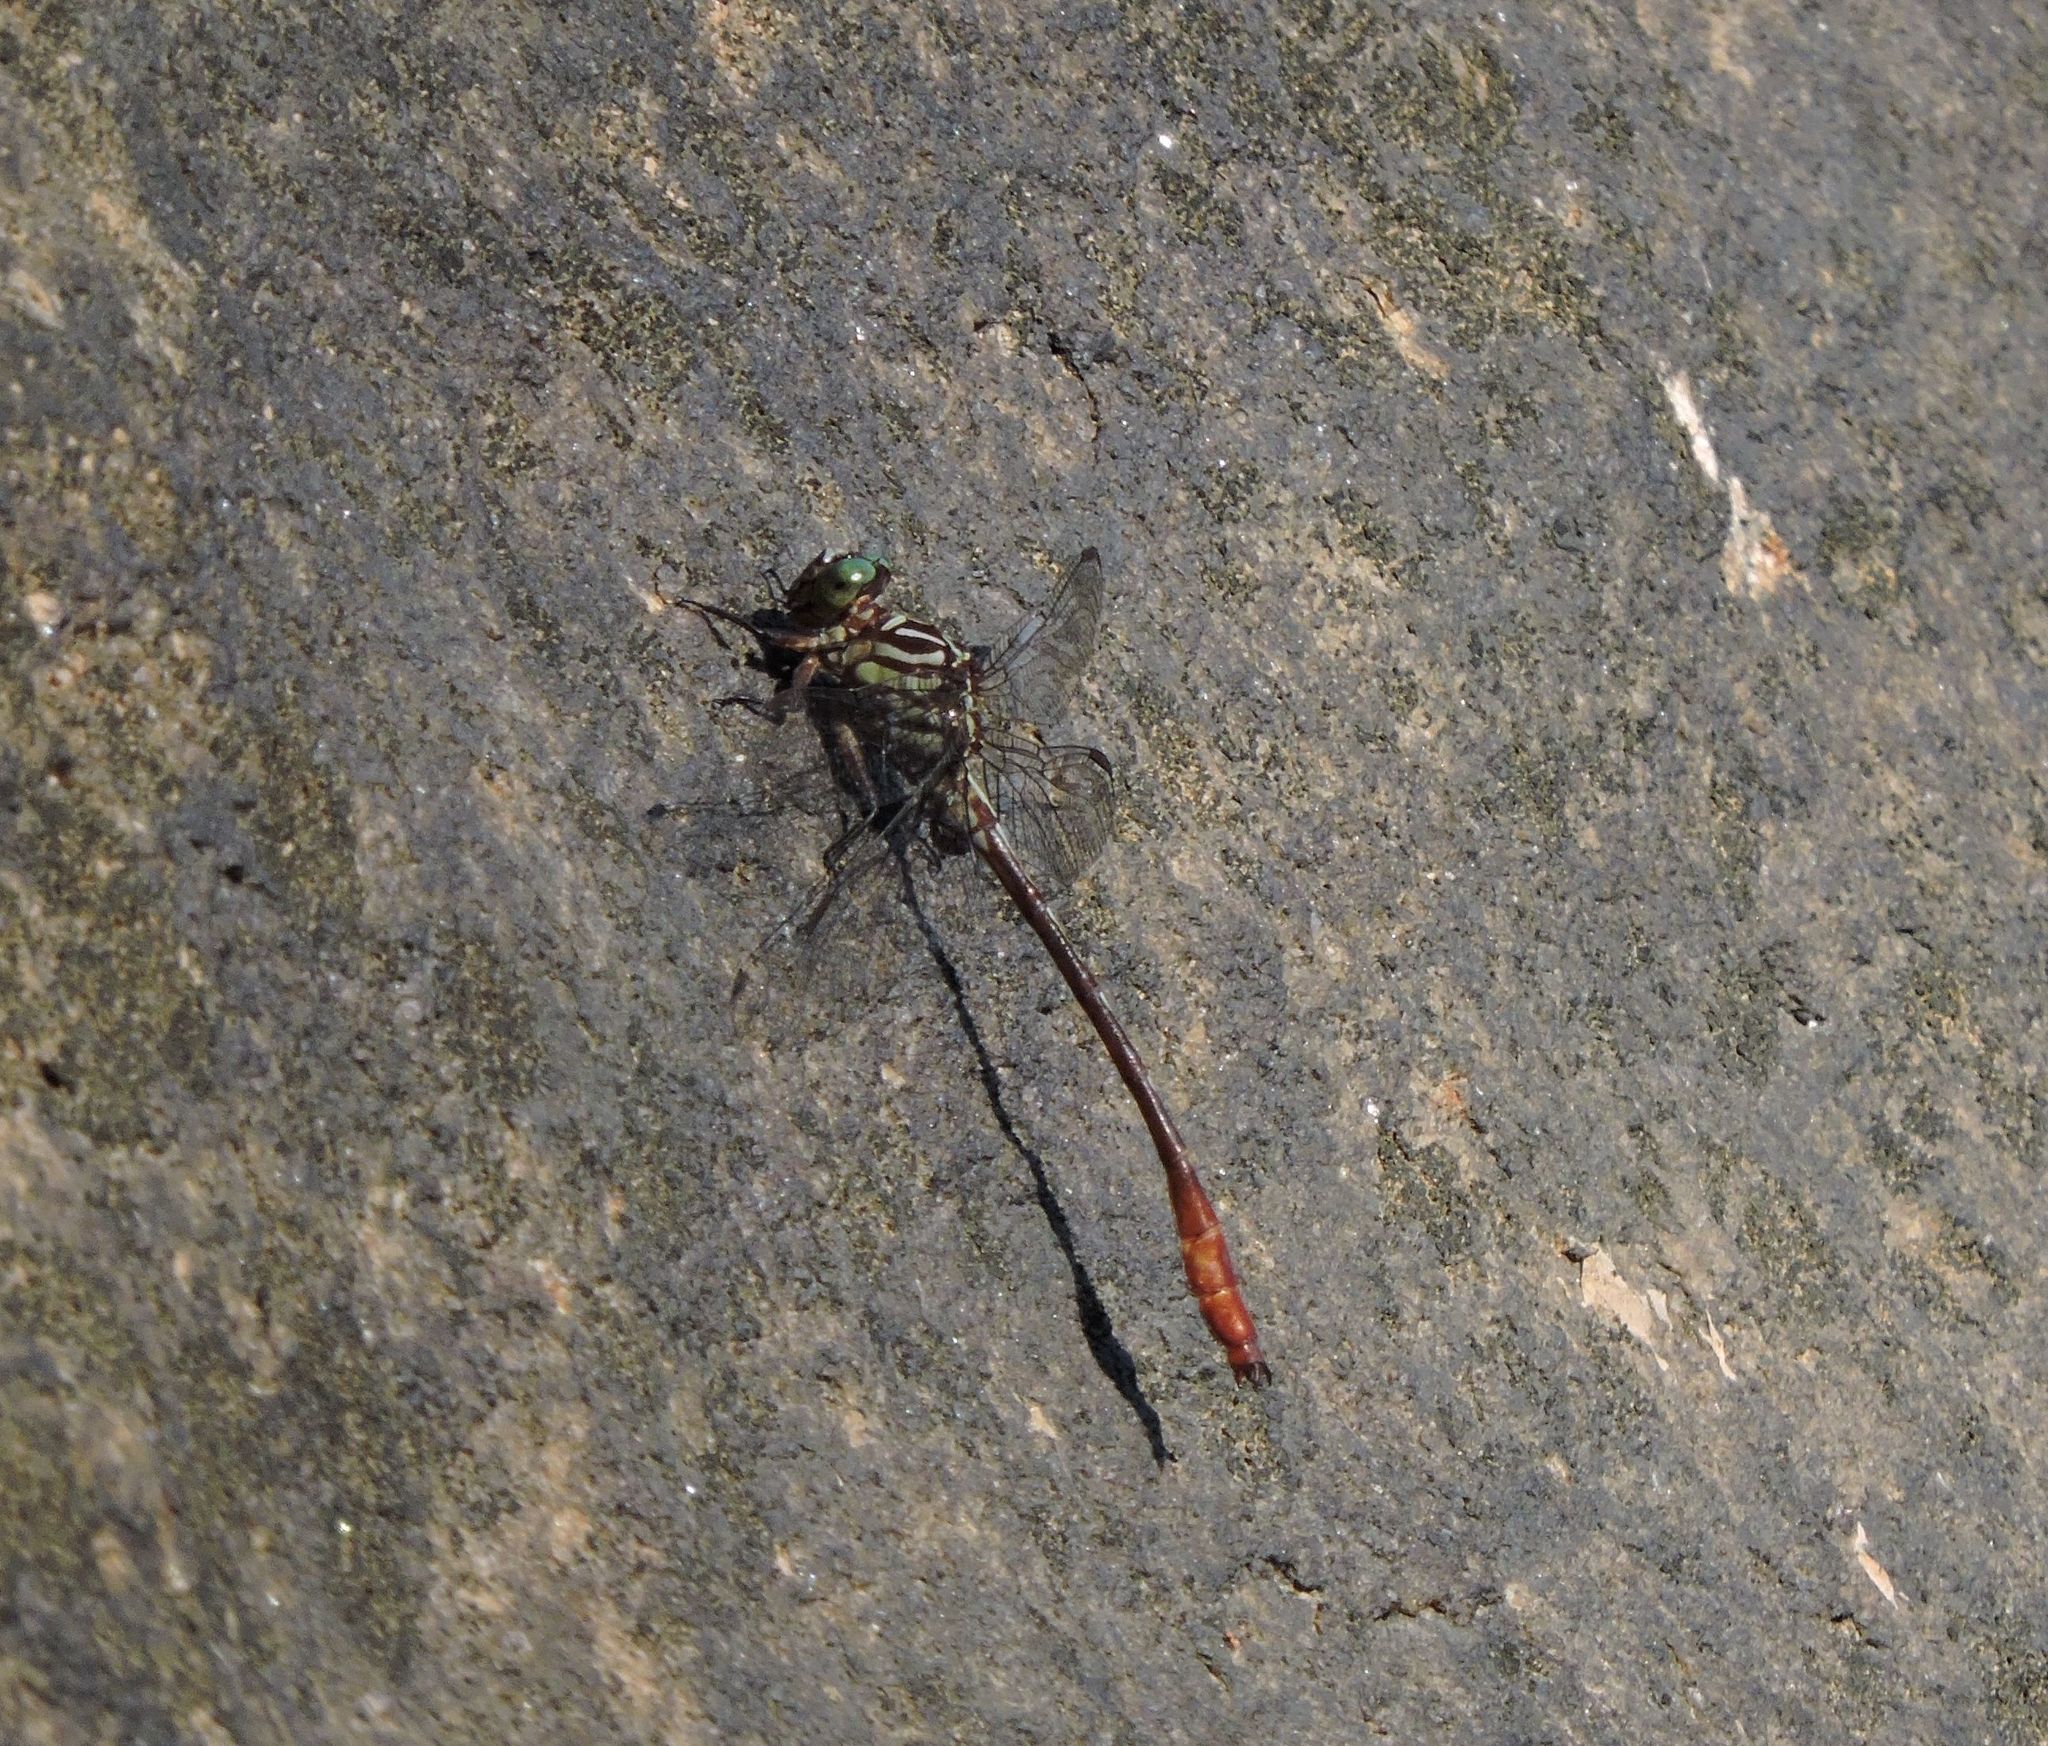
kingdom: Animalia
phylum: Arthropoda
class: Insecta
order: Odonata
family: Gomphidae
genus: Stylurus
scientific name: Stylurus plagiatus
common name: Russet-tipped clubtail
